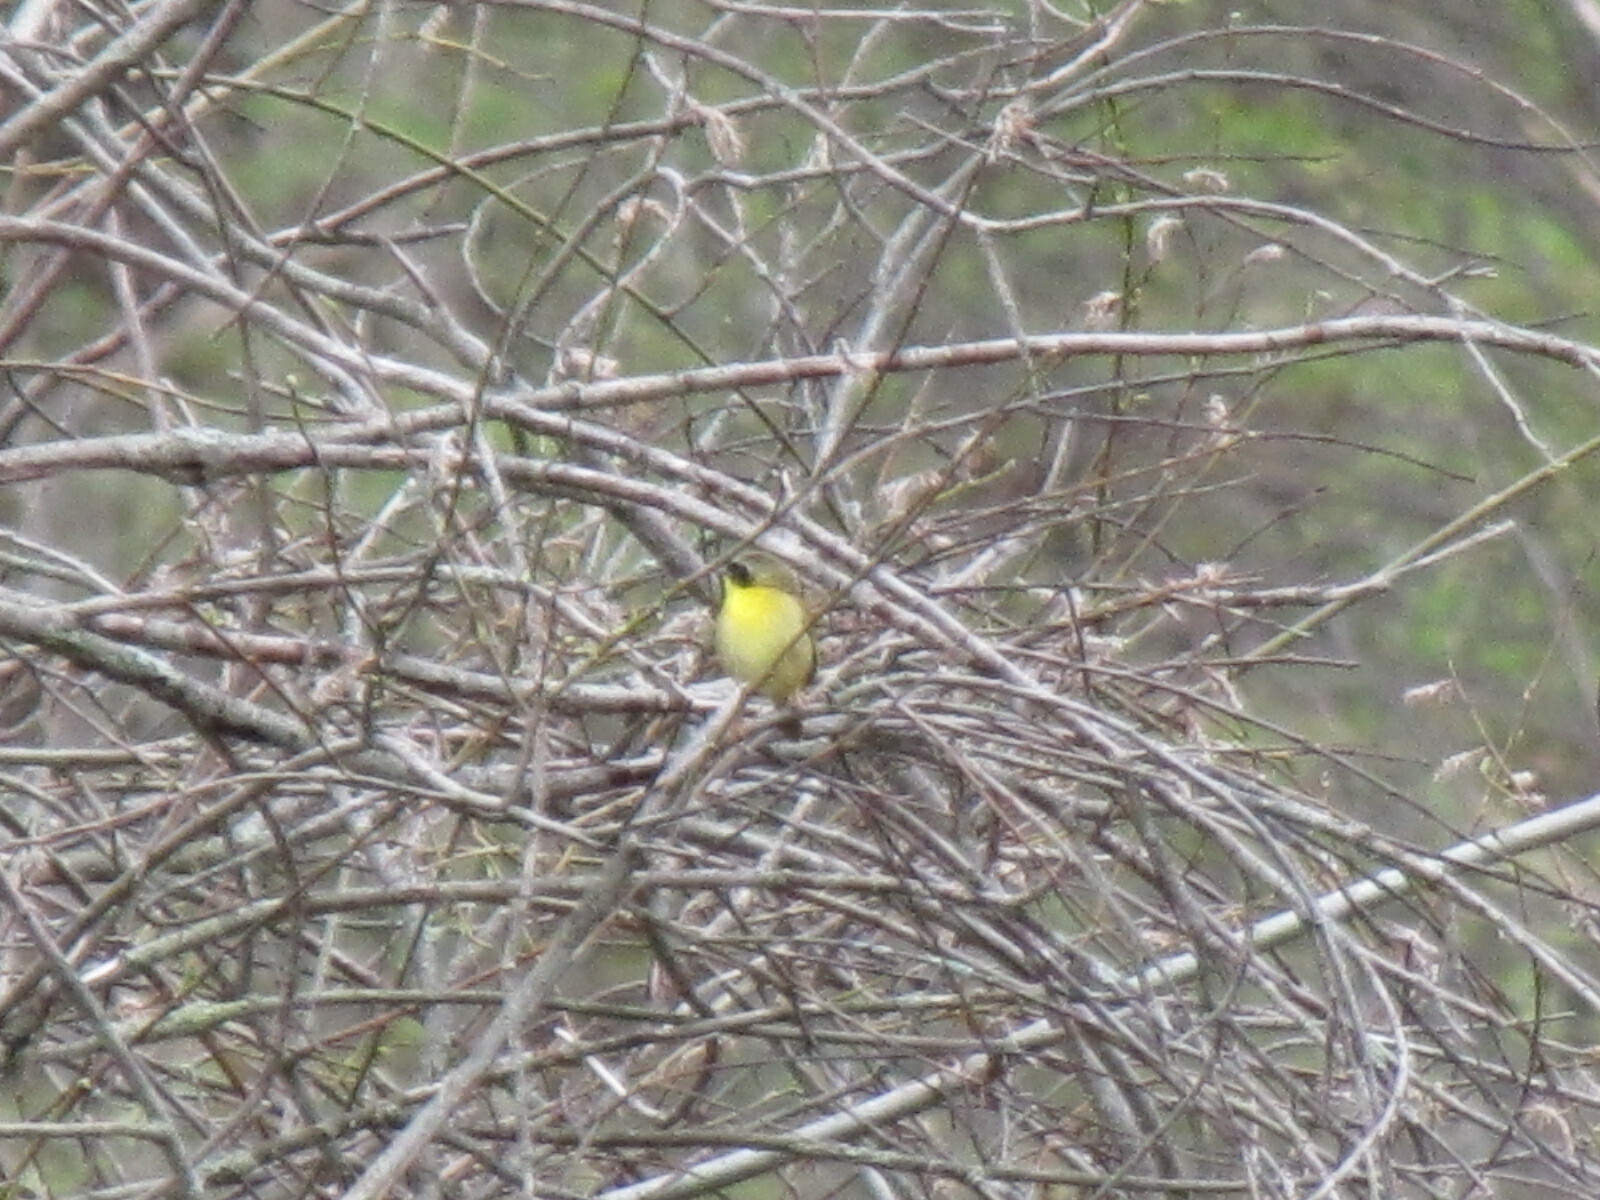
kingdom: Animalia
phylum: Chordata
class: Aves
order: Passeriformes
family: Parulidae
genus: Geothlypis
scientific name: Geothlypis trichas
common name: Common yellowthroat
